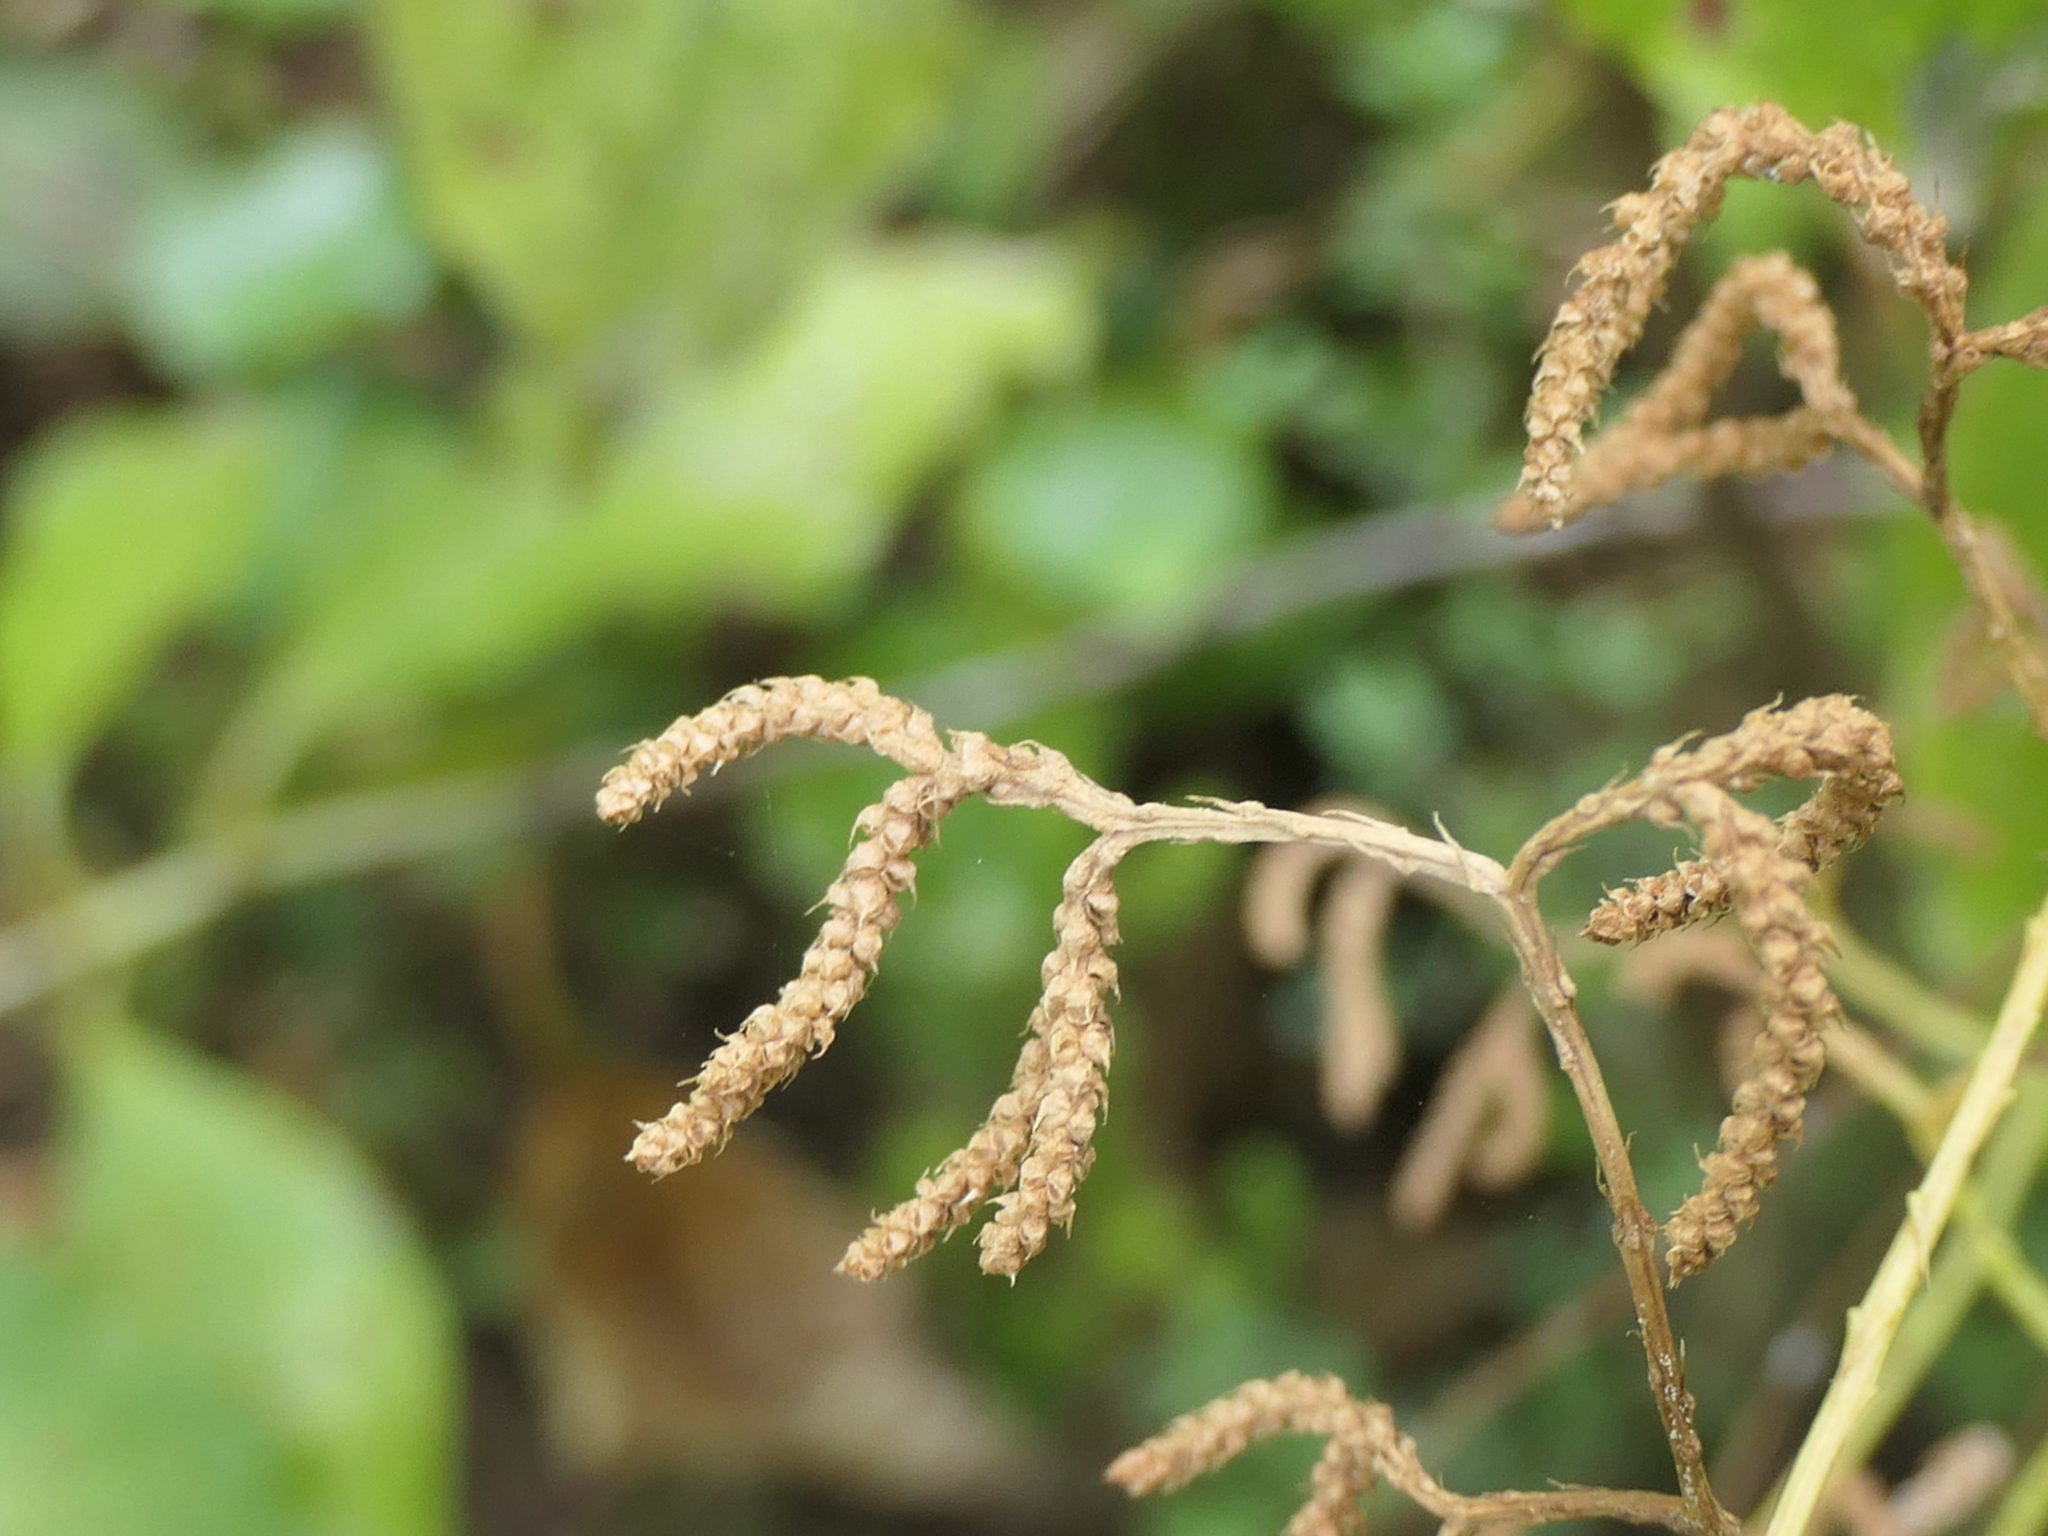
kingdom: Plantae
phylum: Tracheophyta
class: Lycopodiopsida
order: Lycopodiales
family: Lycopodiaceae
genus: Lycopodium
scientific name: Lycopodium volubile
